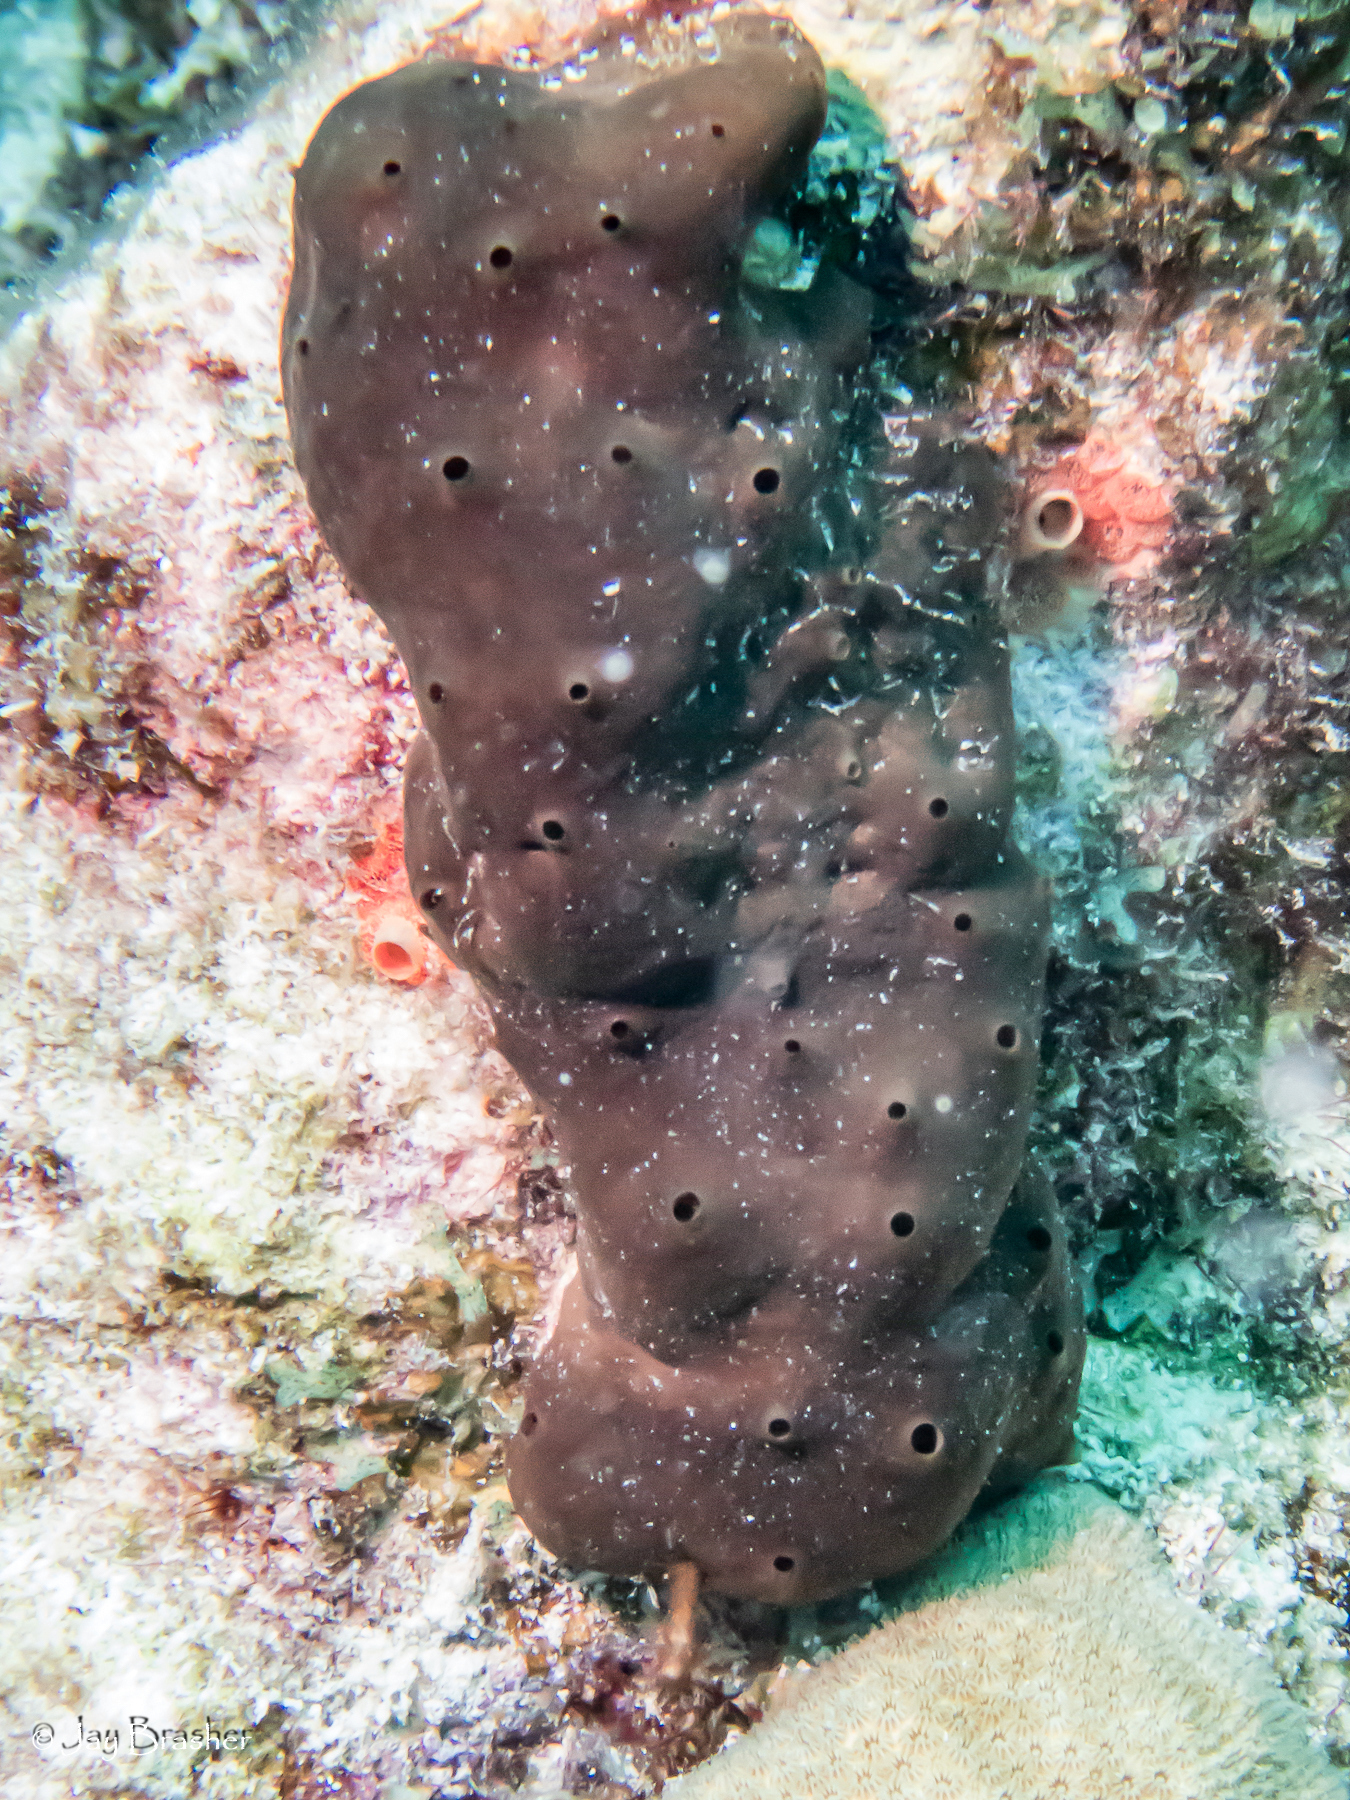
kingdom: Animalia
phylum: Porifera
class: Homoscleromorpha
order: Homosclerophorida
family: Plakinidae
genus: Plakortis
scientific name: Plakortis angulospiculatus
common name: Viscous sponge
